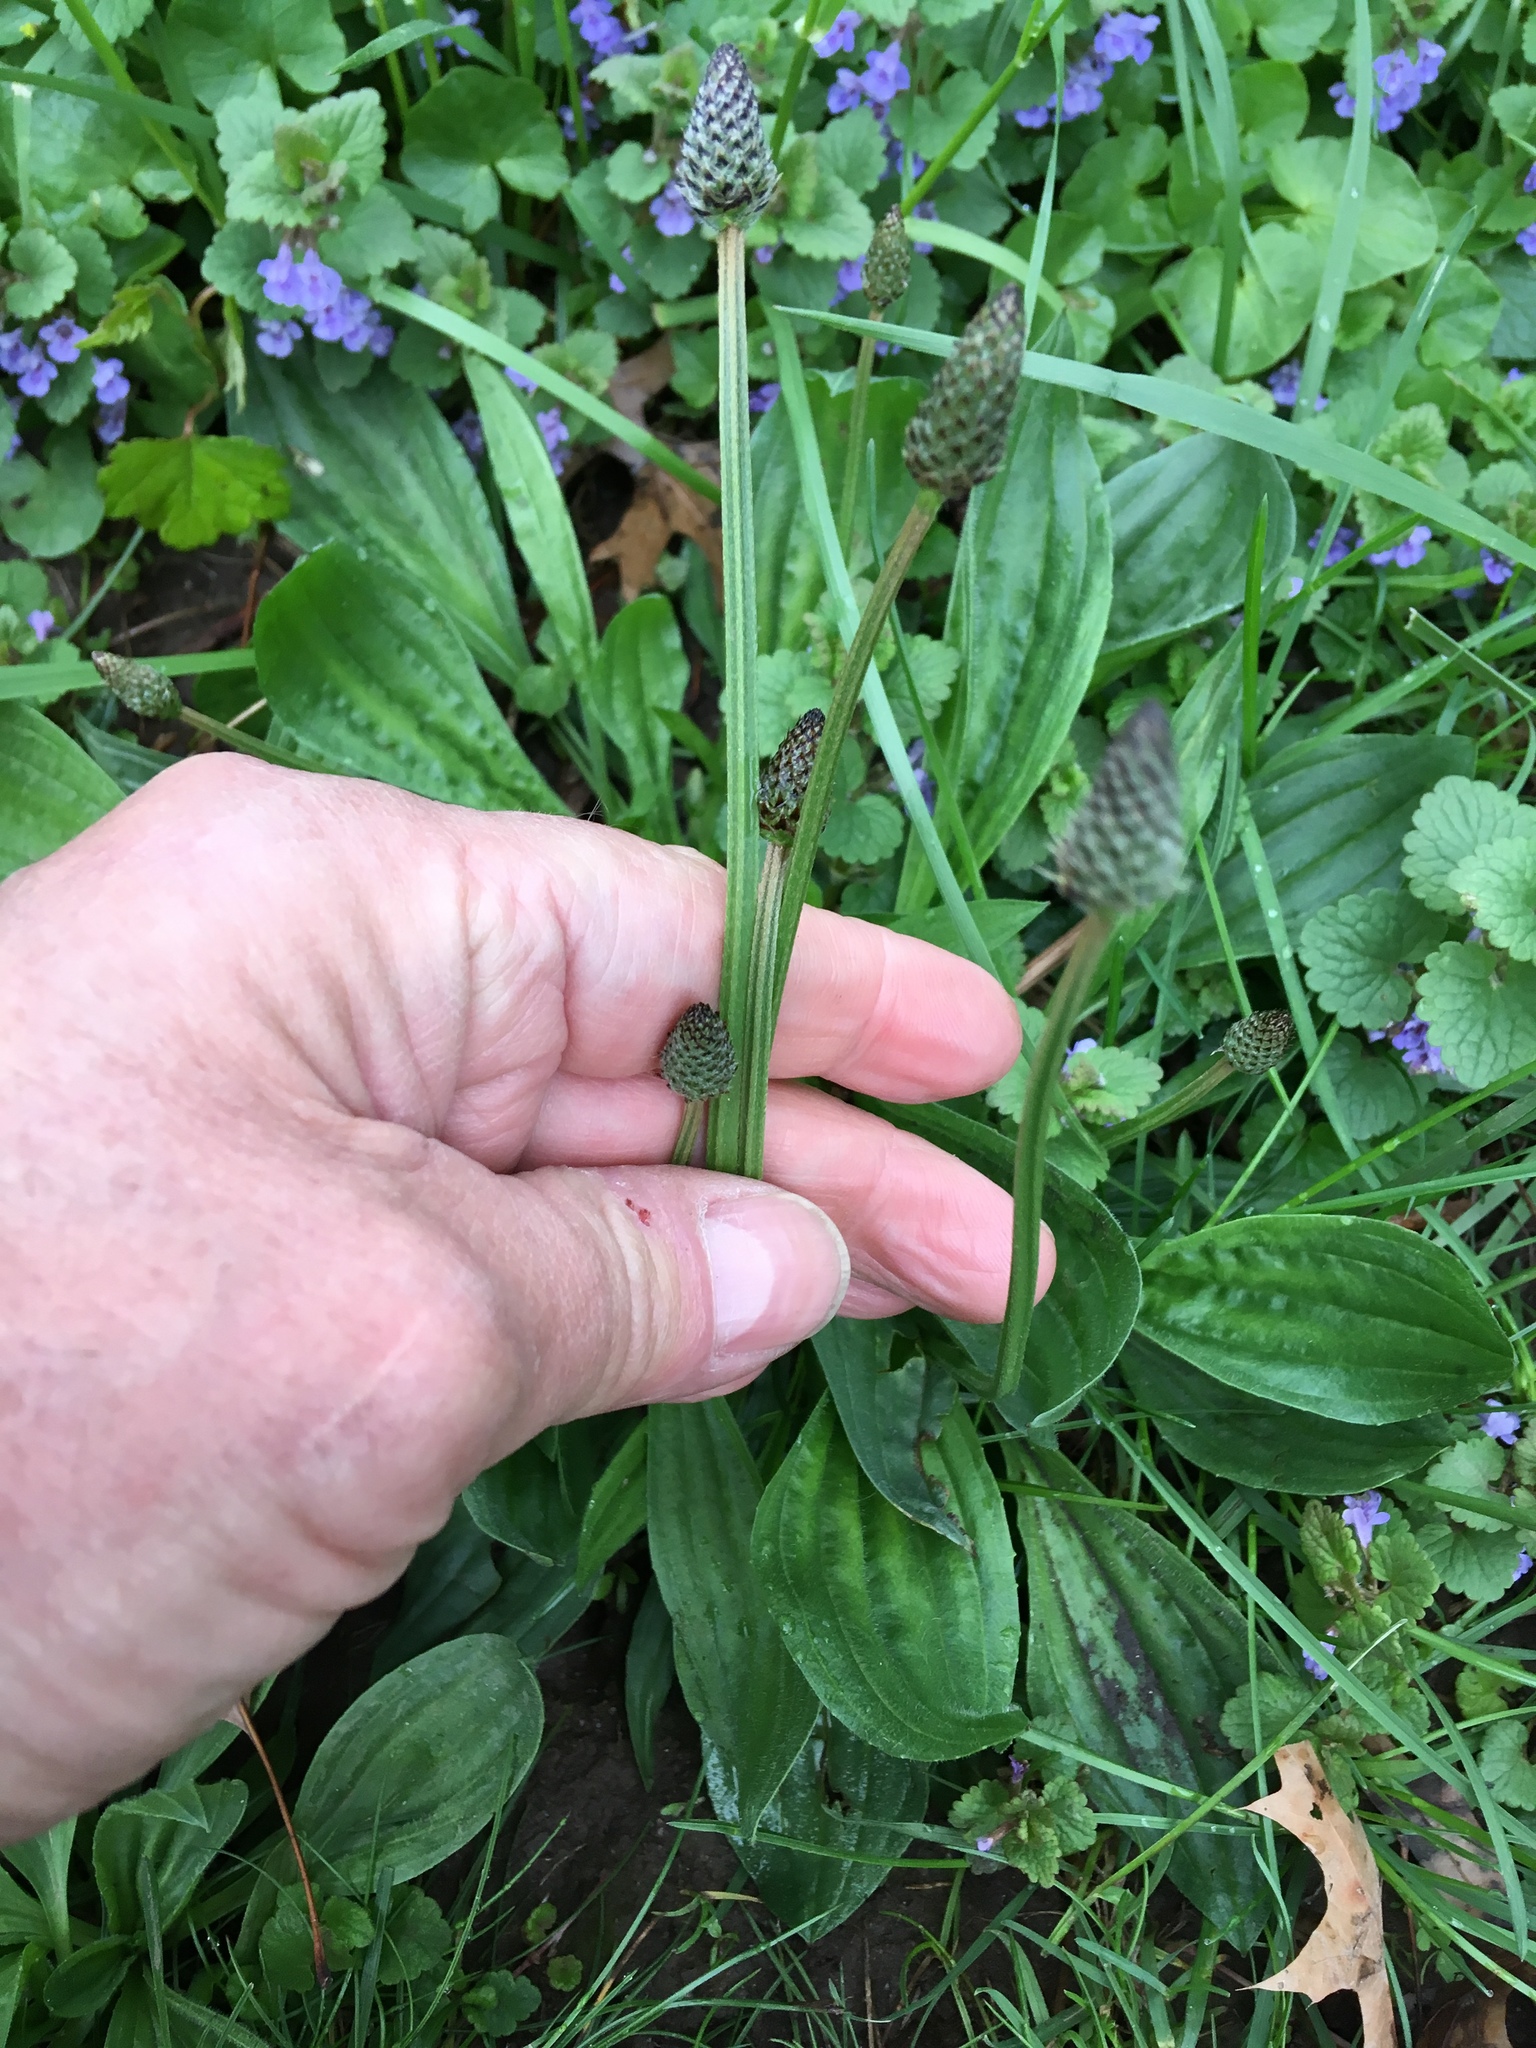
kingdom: Plantae
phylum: Tracheophyta
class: Magnoliopsida
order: Lamiales
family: Plantaginaceae
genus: Plantago
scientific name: Plantago lanceolata
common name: Ribwort plantain
